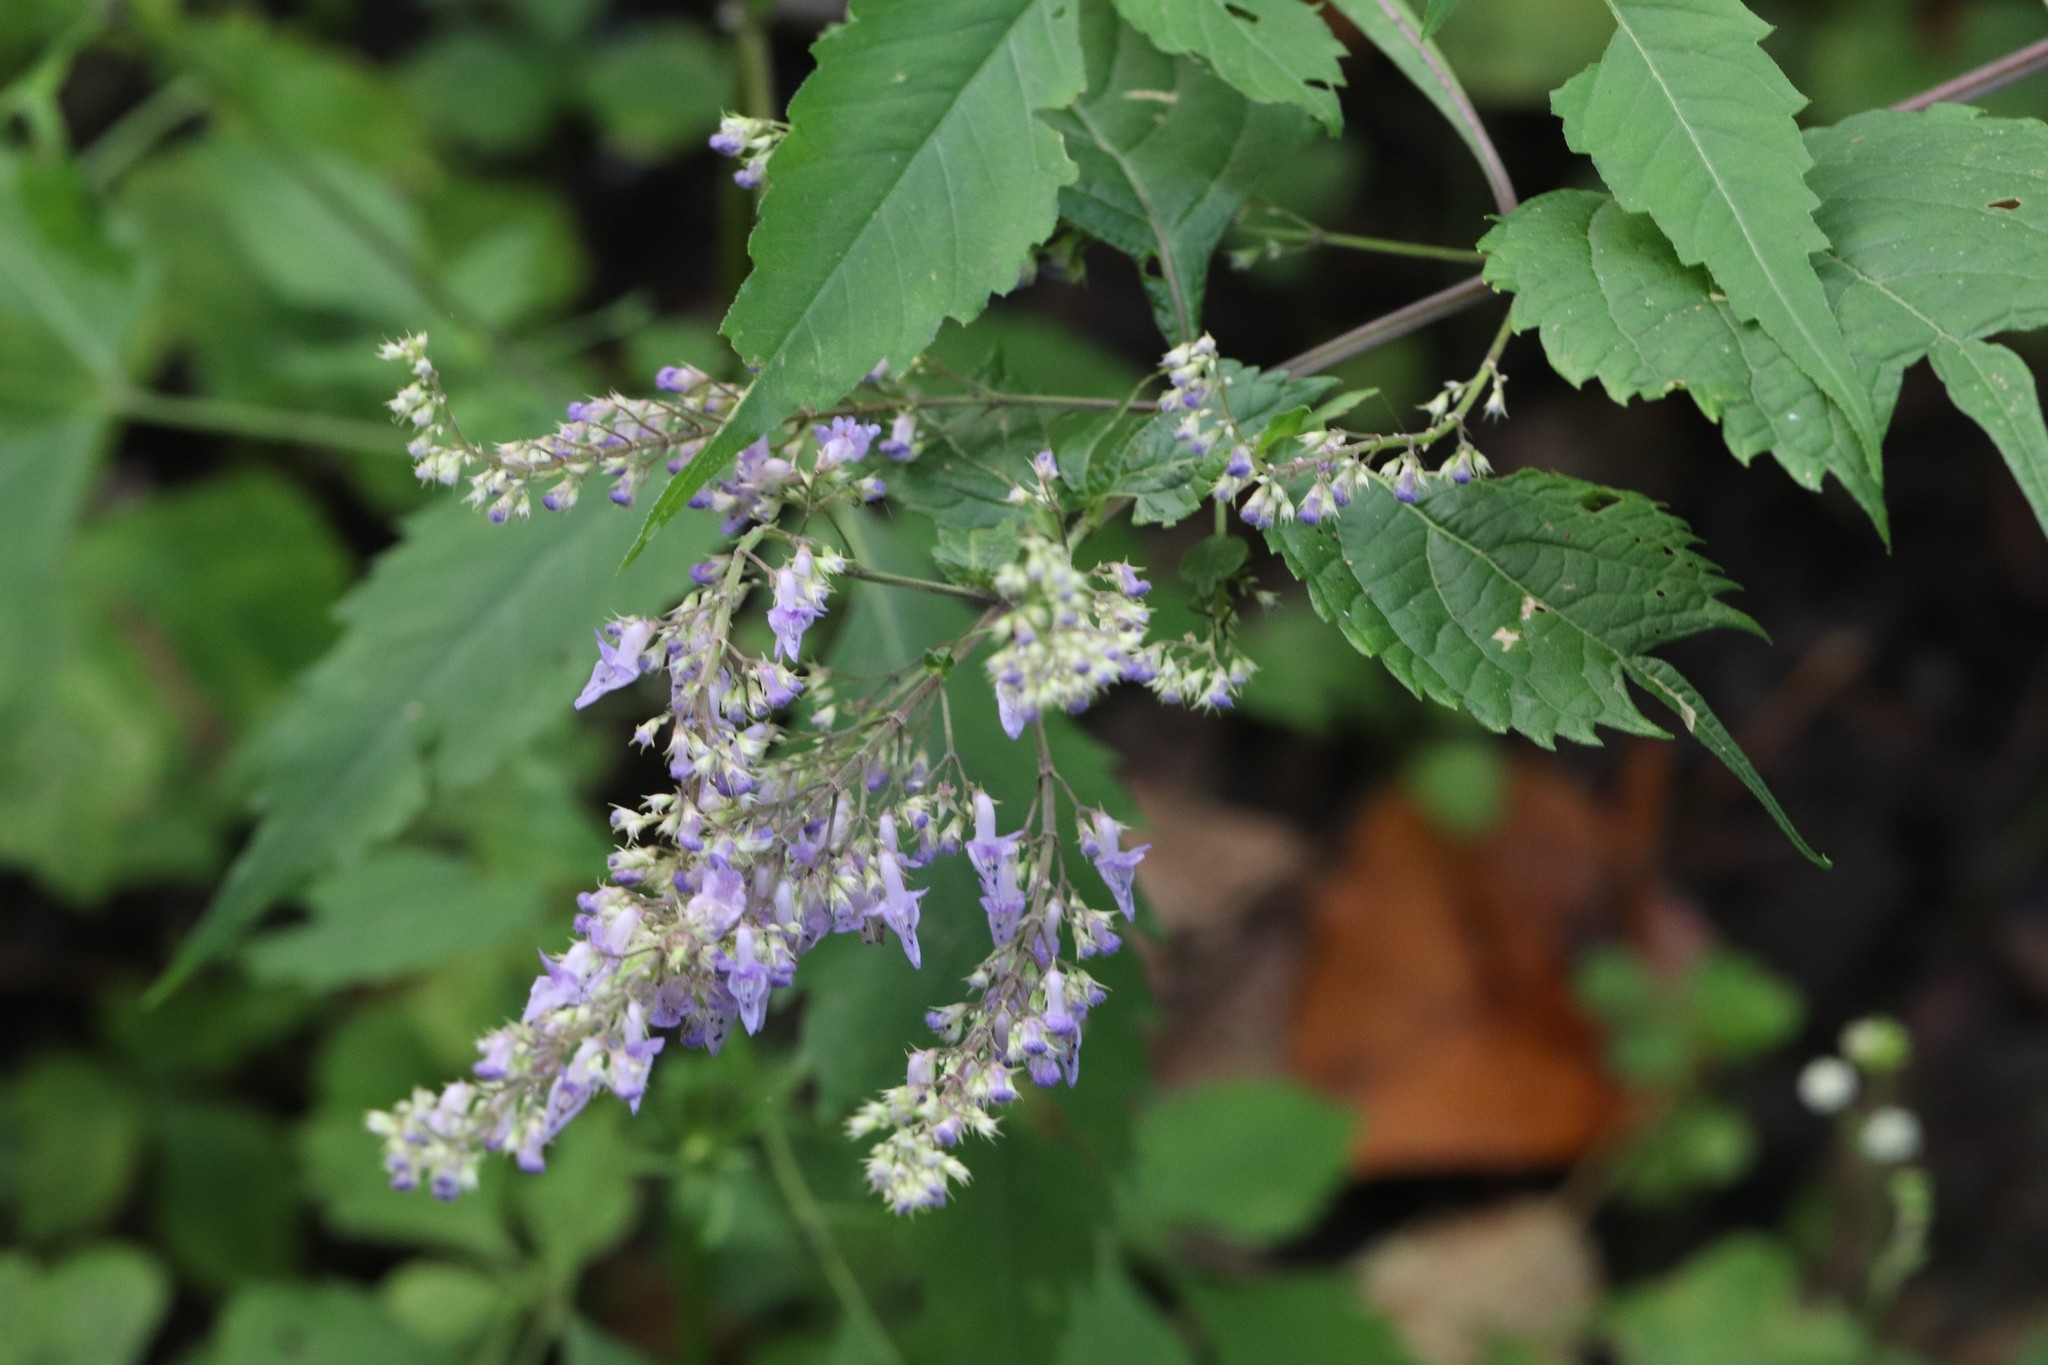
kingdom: Plantae
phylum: Tracheophyta
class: Magnoliopsida
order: Lamiales
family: Lamiaceae
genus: Isodon
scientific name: Isodon excisus
